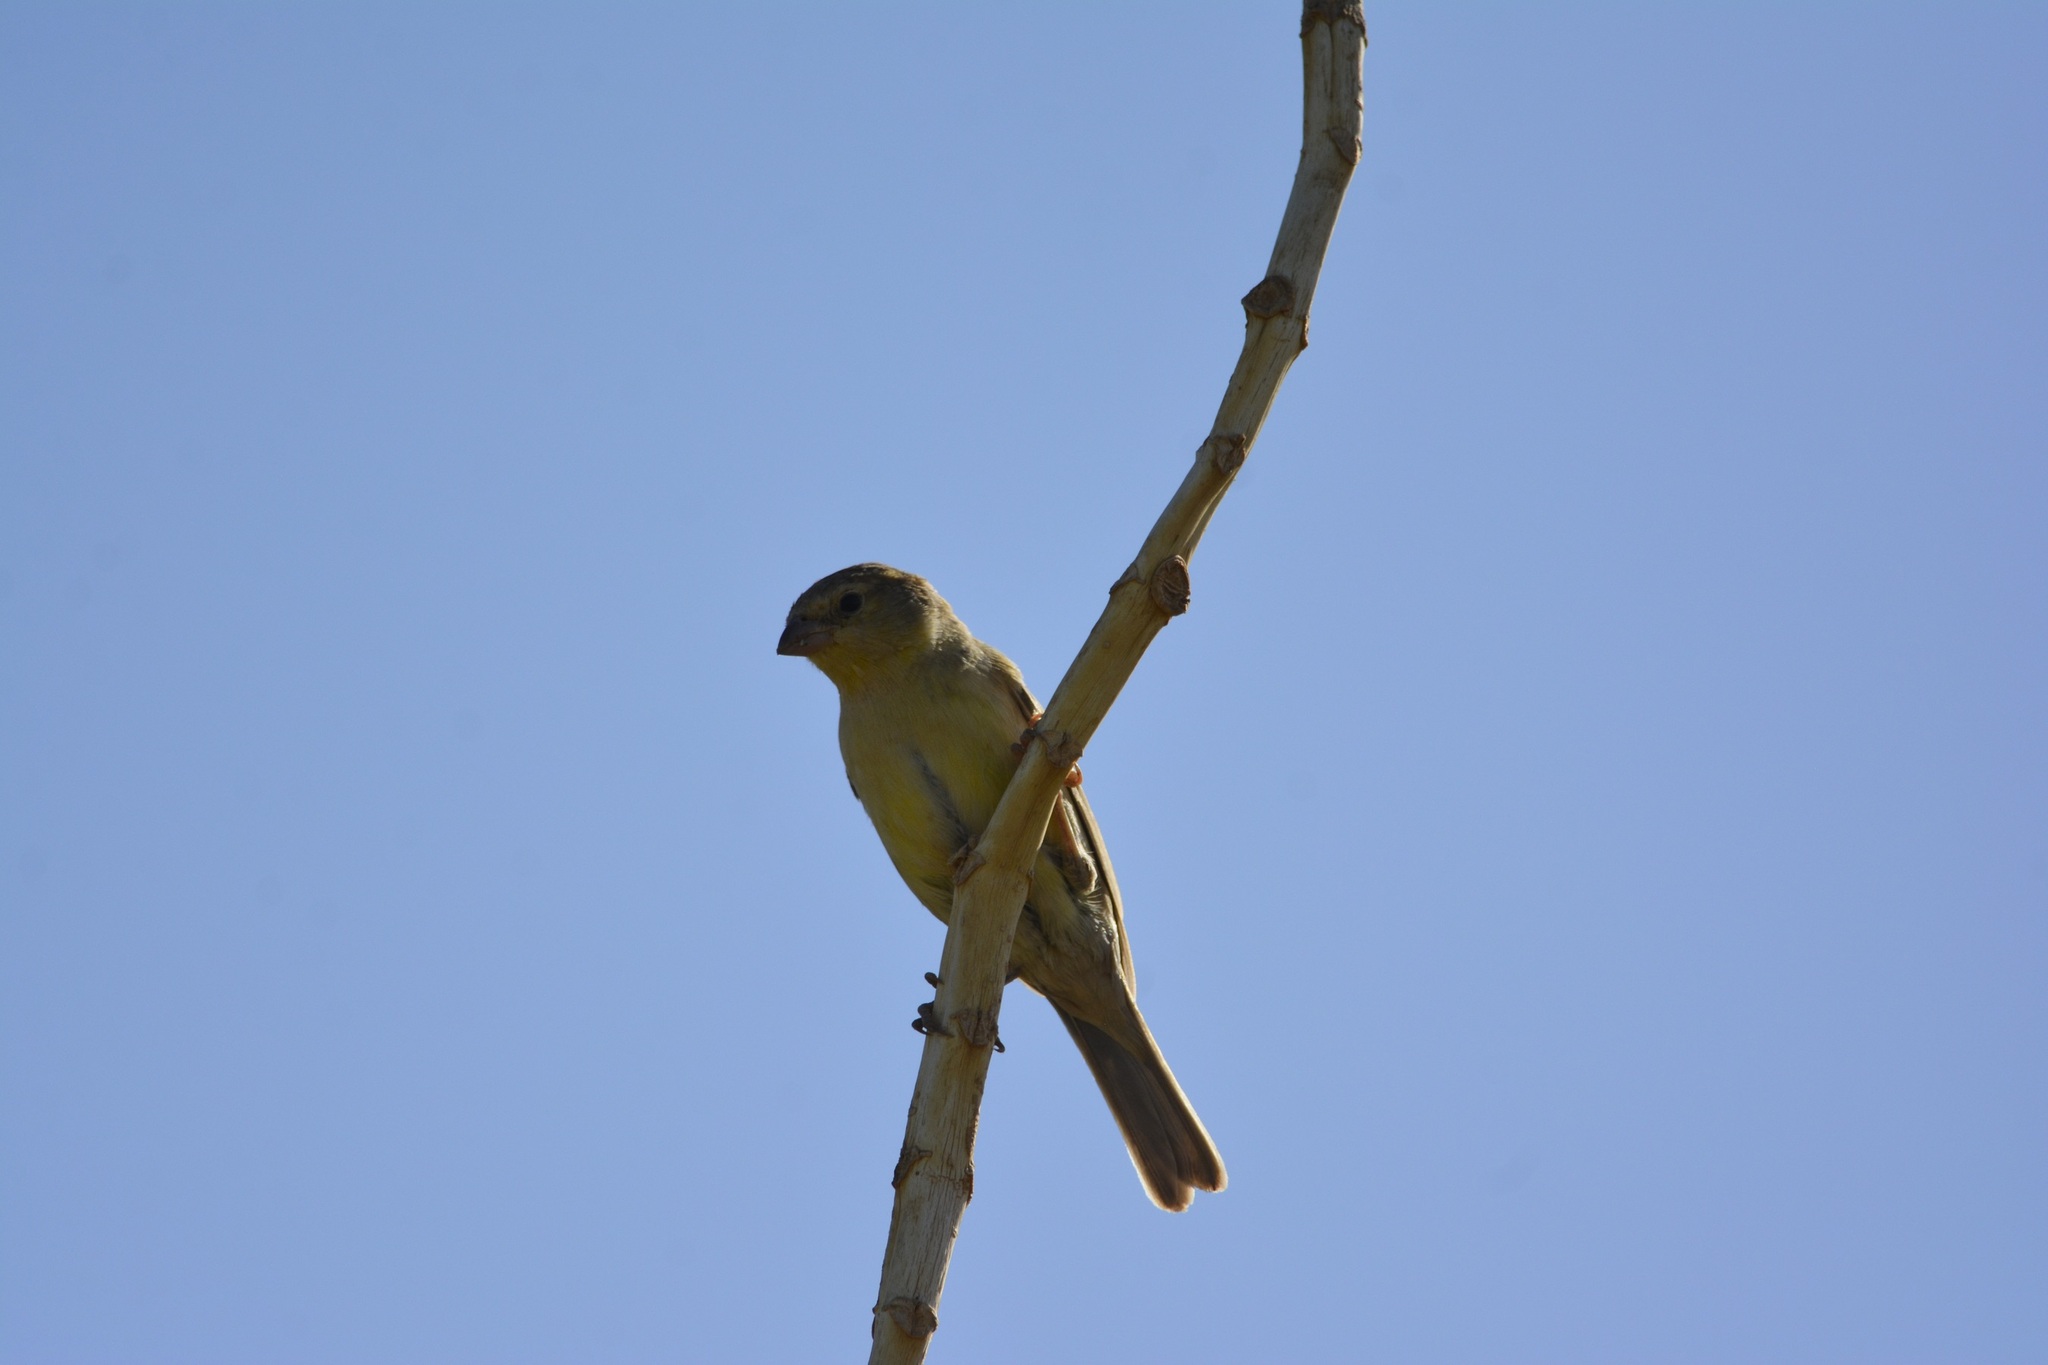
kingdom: Animalia
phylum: Chordata
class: Aves
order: Passeriformes
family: Passeridae
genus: Passer
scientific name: Passer luteus
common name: Sudan golden sparrow
